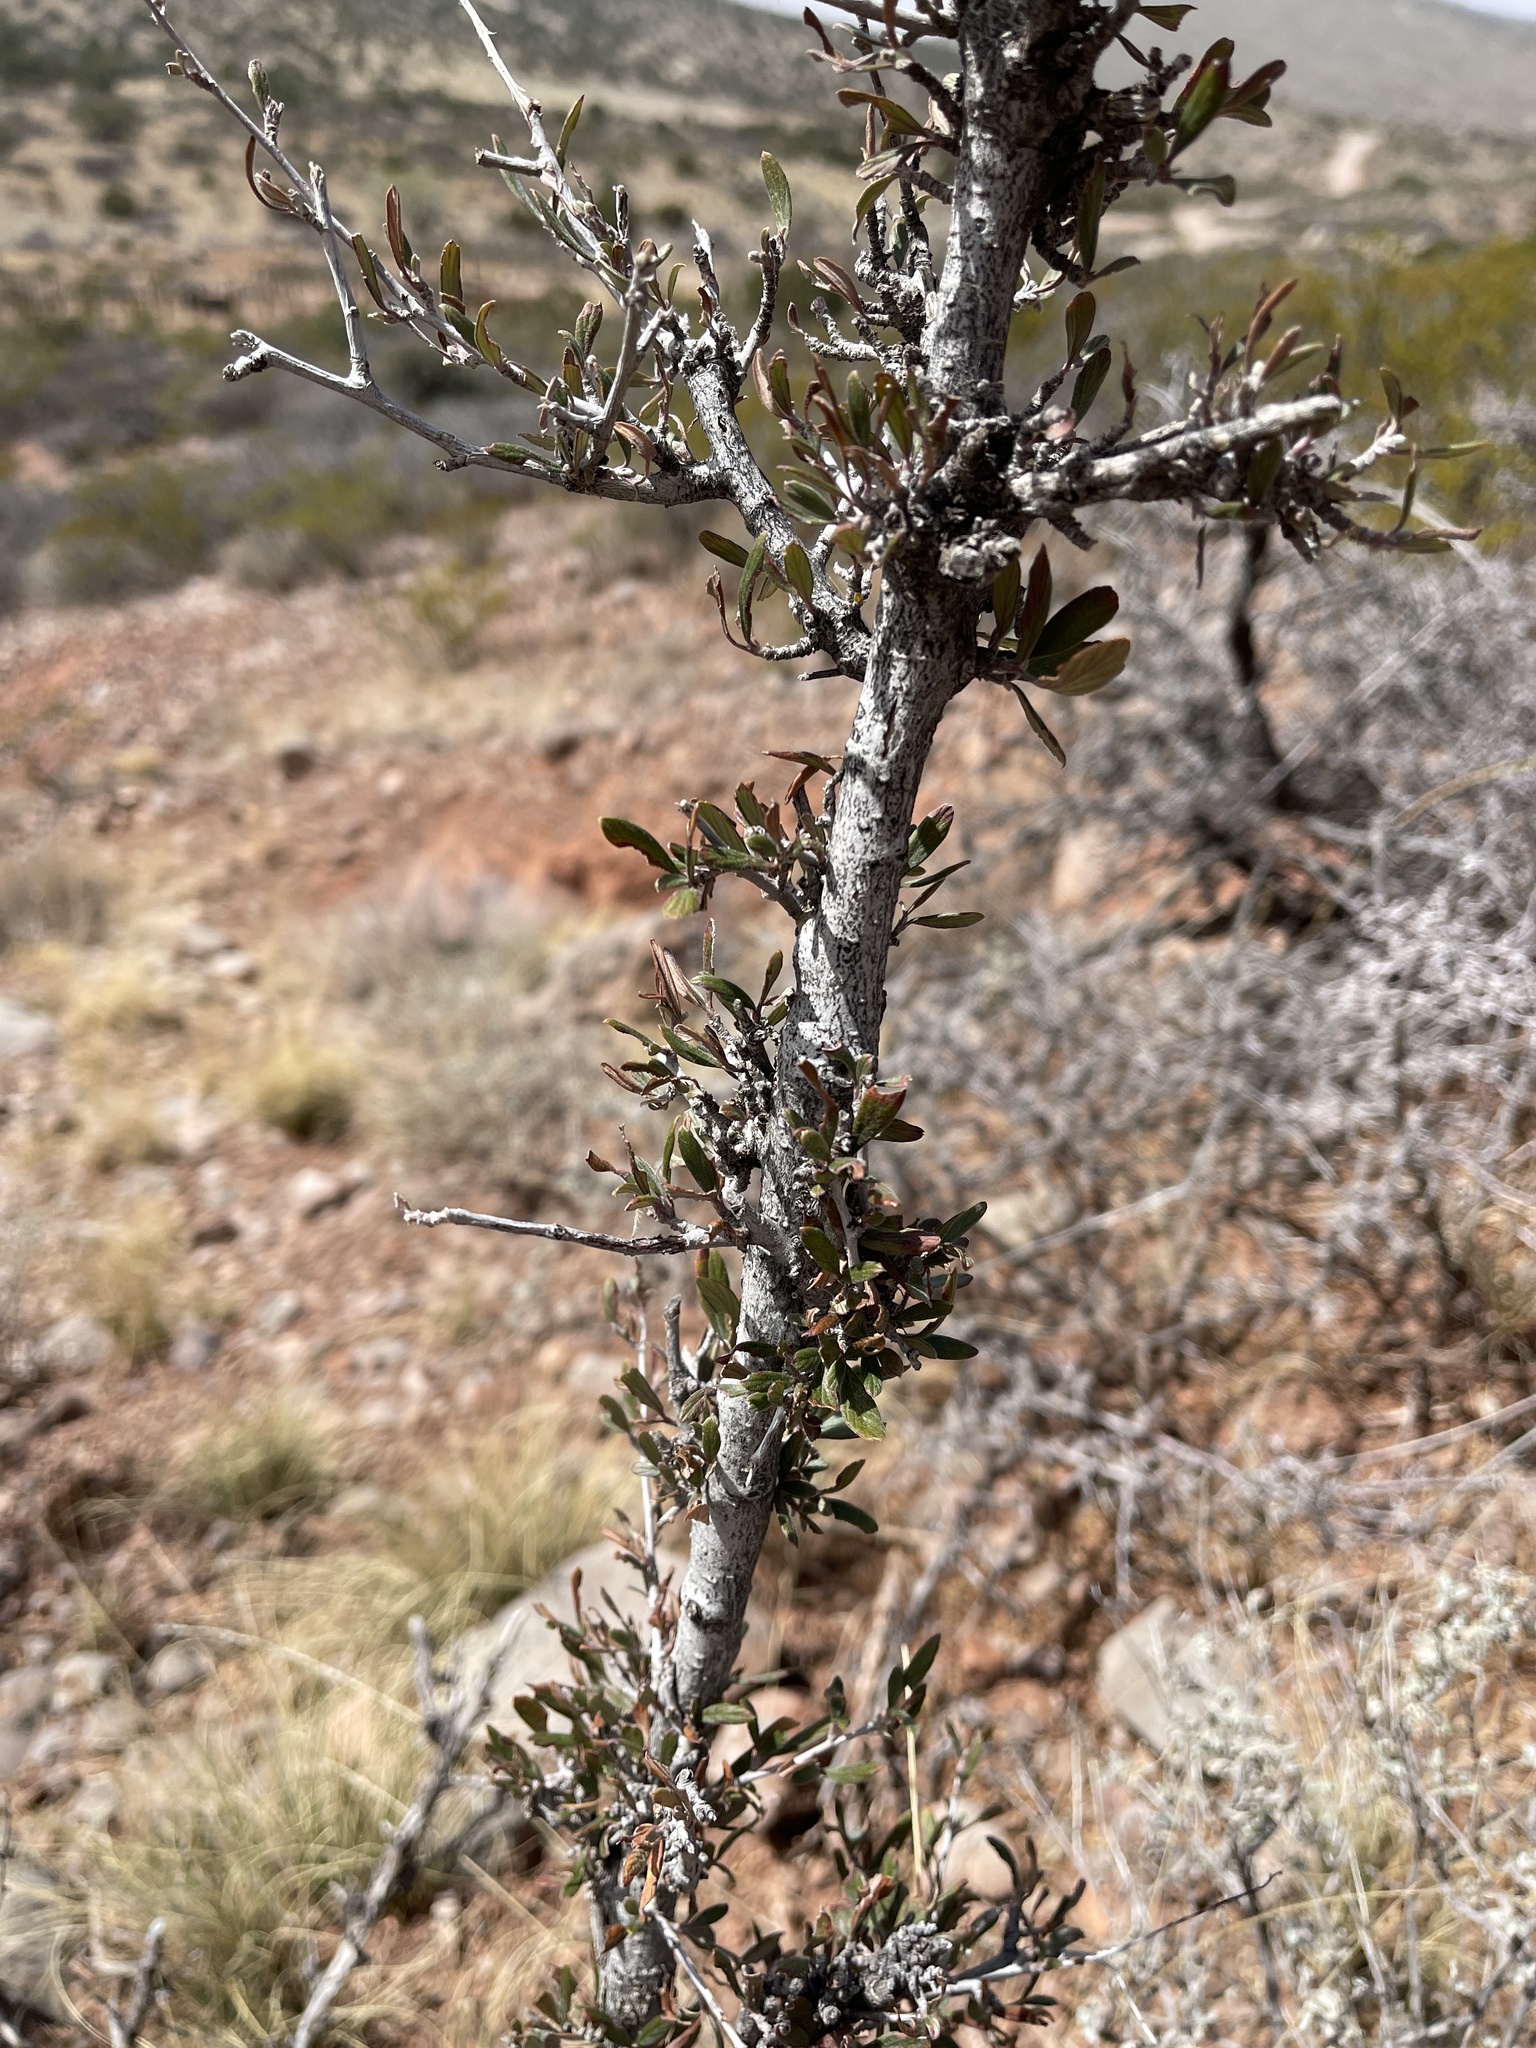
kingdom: Plantae
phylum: Tracheophyta
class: Magnoliopsida
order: Rosales
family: Rosaceae
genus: Cercocarpus
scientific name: Cercocarpus breviflorus
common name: Wright's mountain-mahogany
